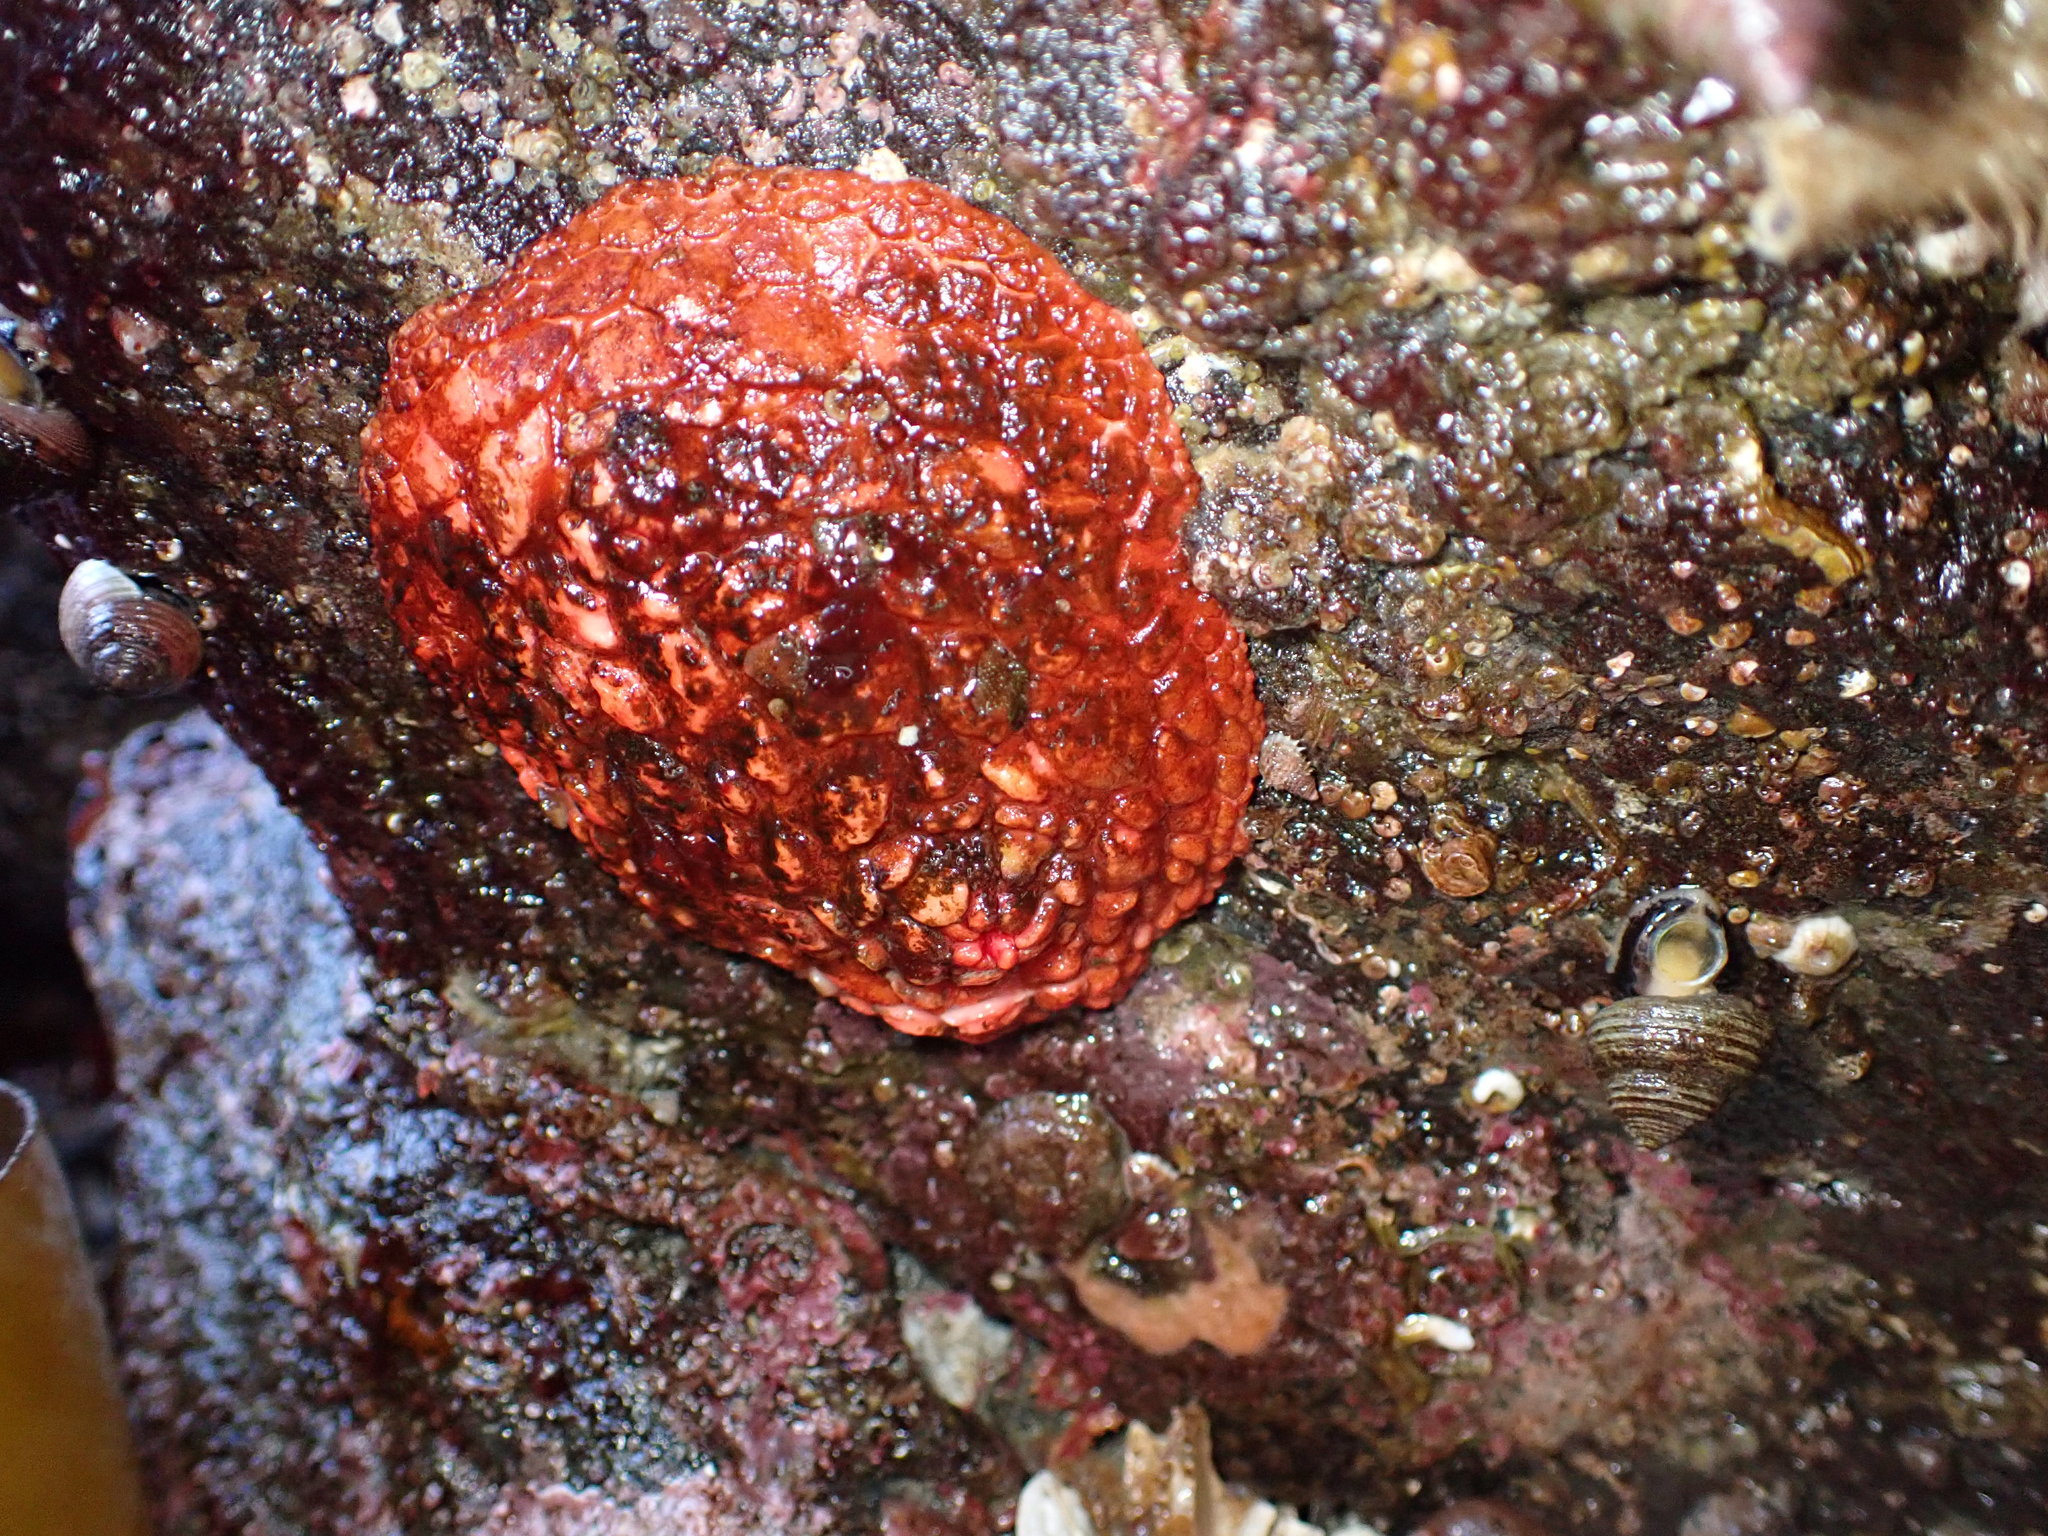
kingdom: Animalia
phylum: Echinodermata
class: Holothuroidea
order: Dendrochirotida
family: Psolidae
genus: Psolus
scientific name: Psolus chitonoides
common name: Creeping pedal sea cucumber
